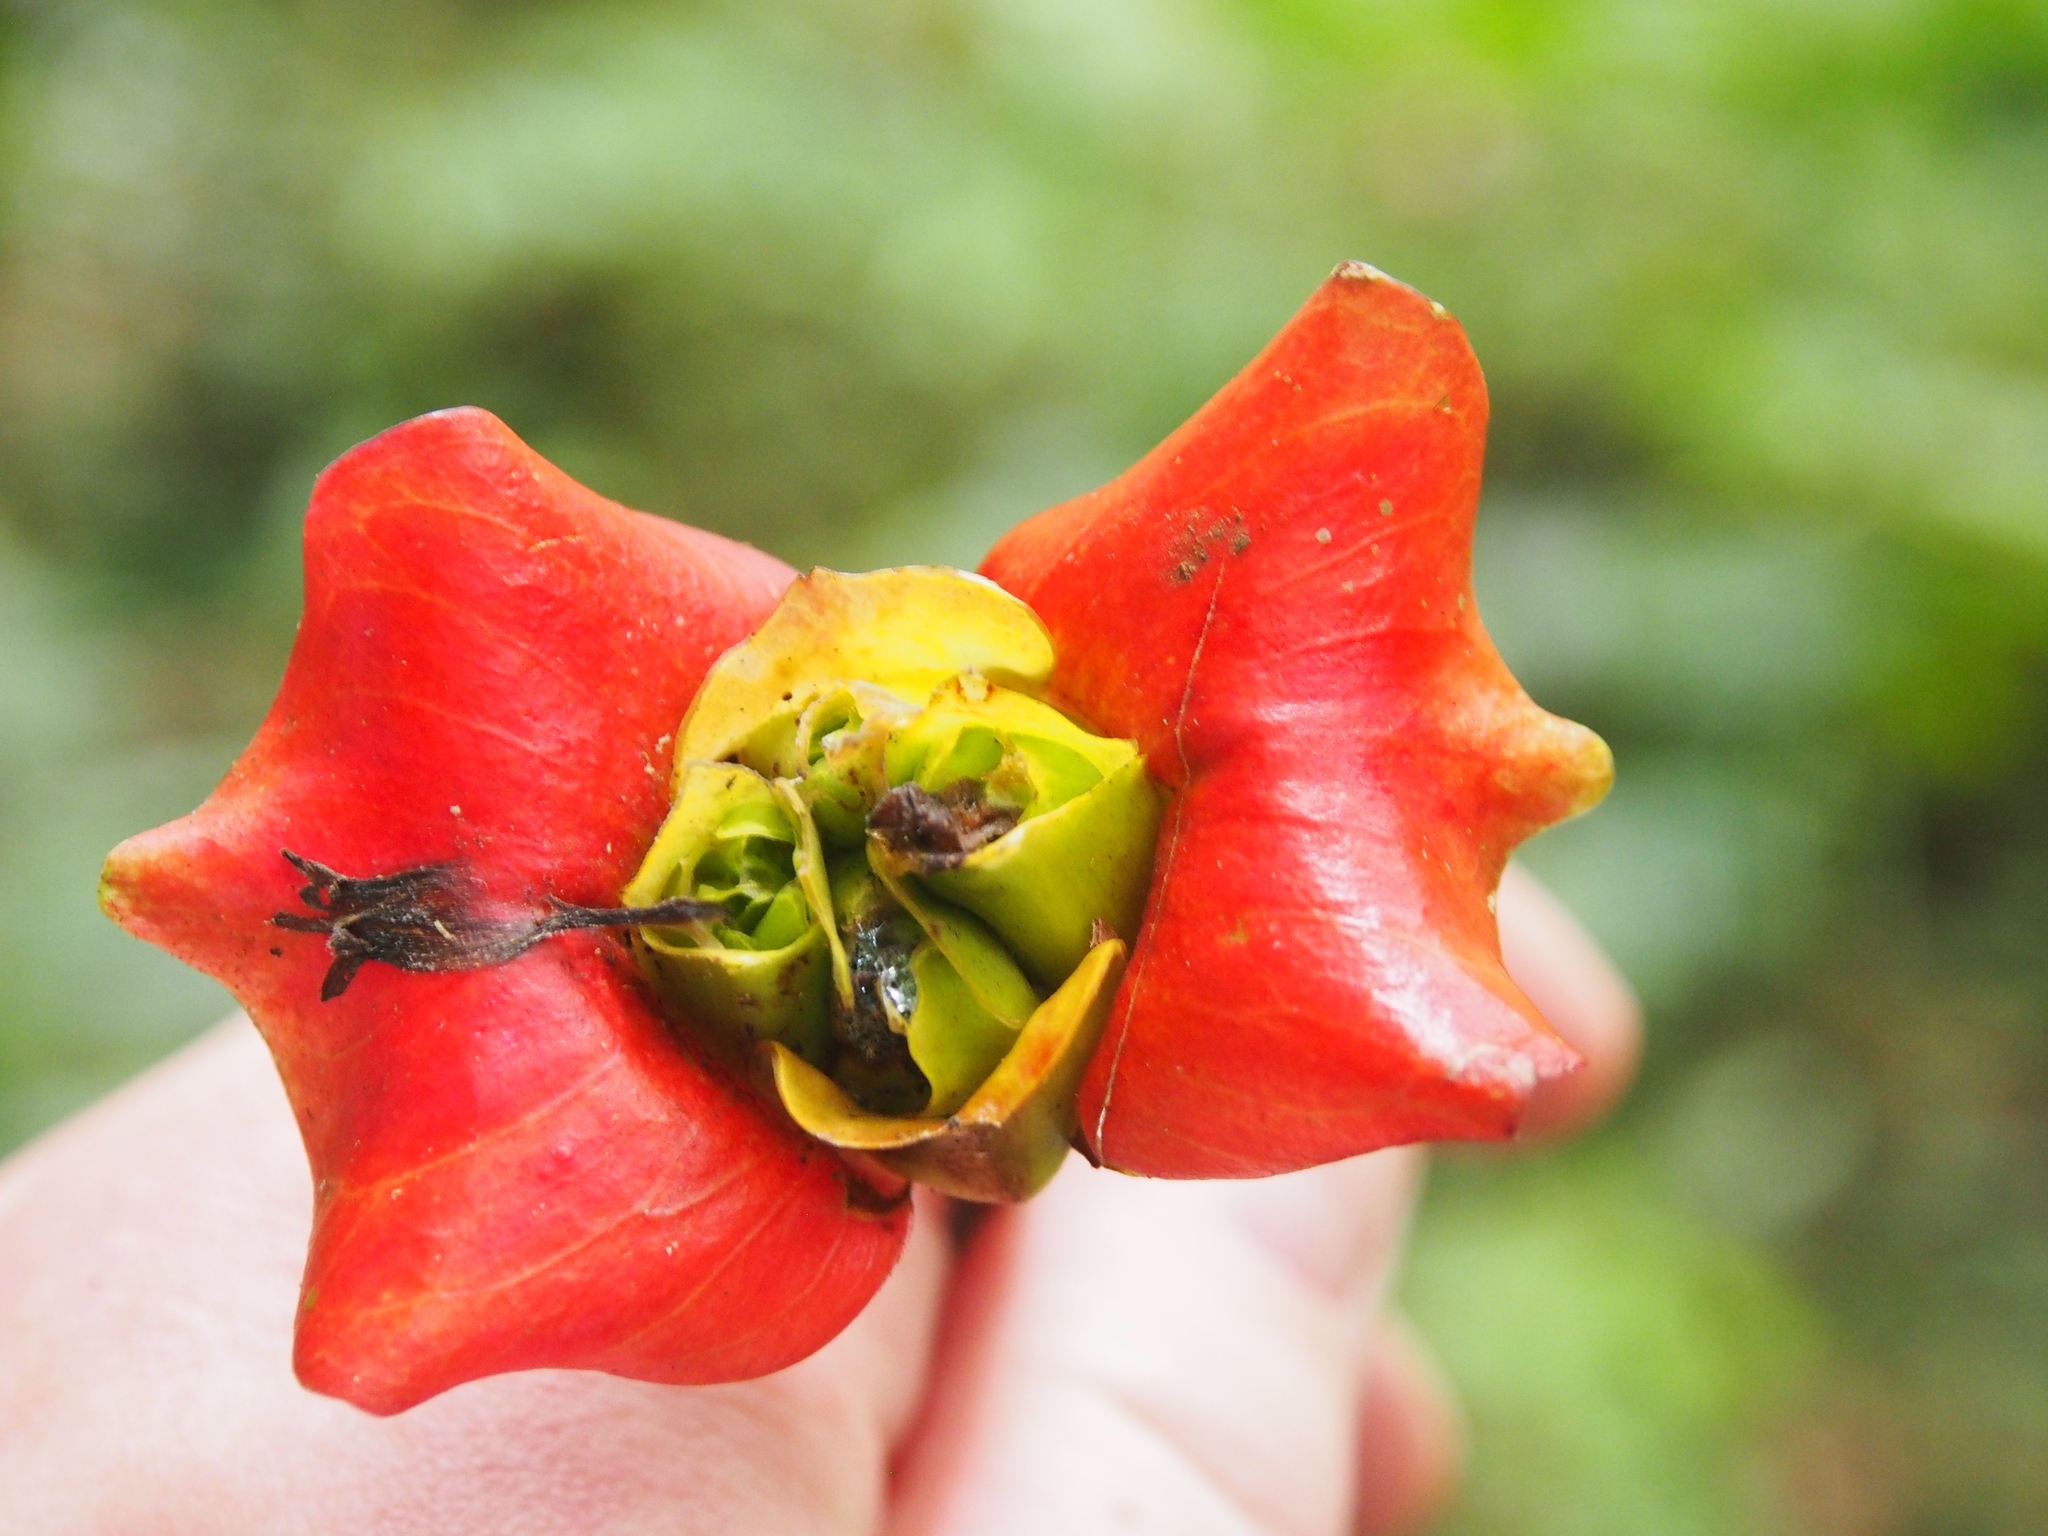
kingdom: Plantae
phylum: Tracheophyta
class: Magnoliopsida
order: Gentianales
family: Rubiaceae
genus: Palicourea
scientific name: Palicourea elata
